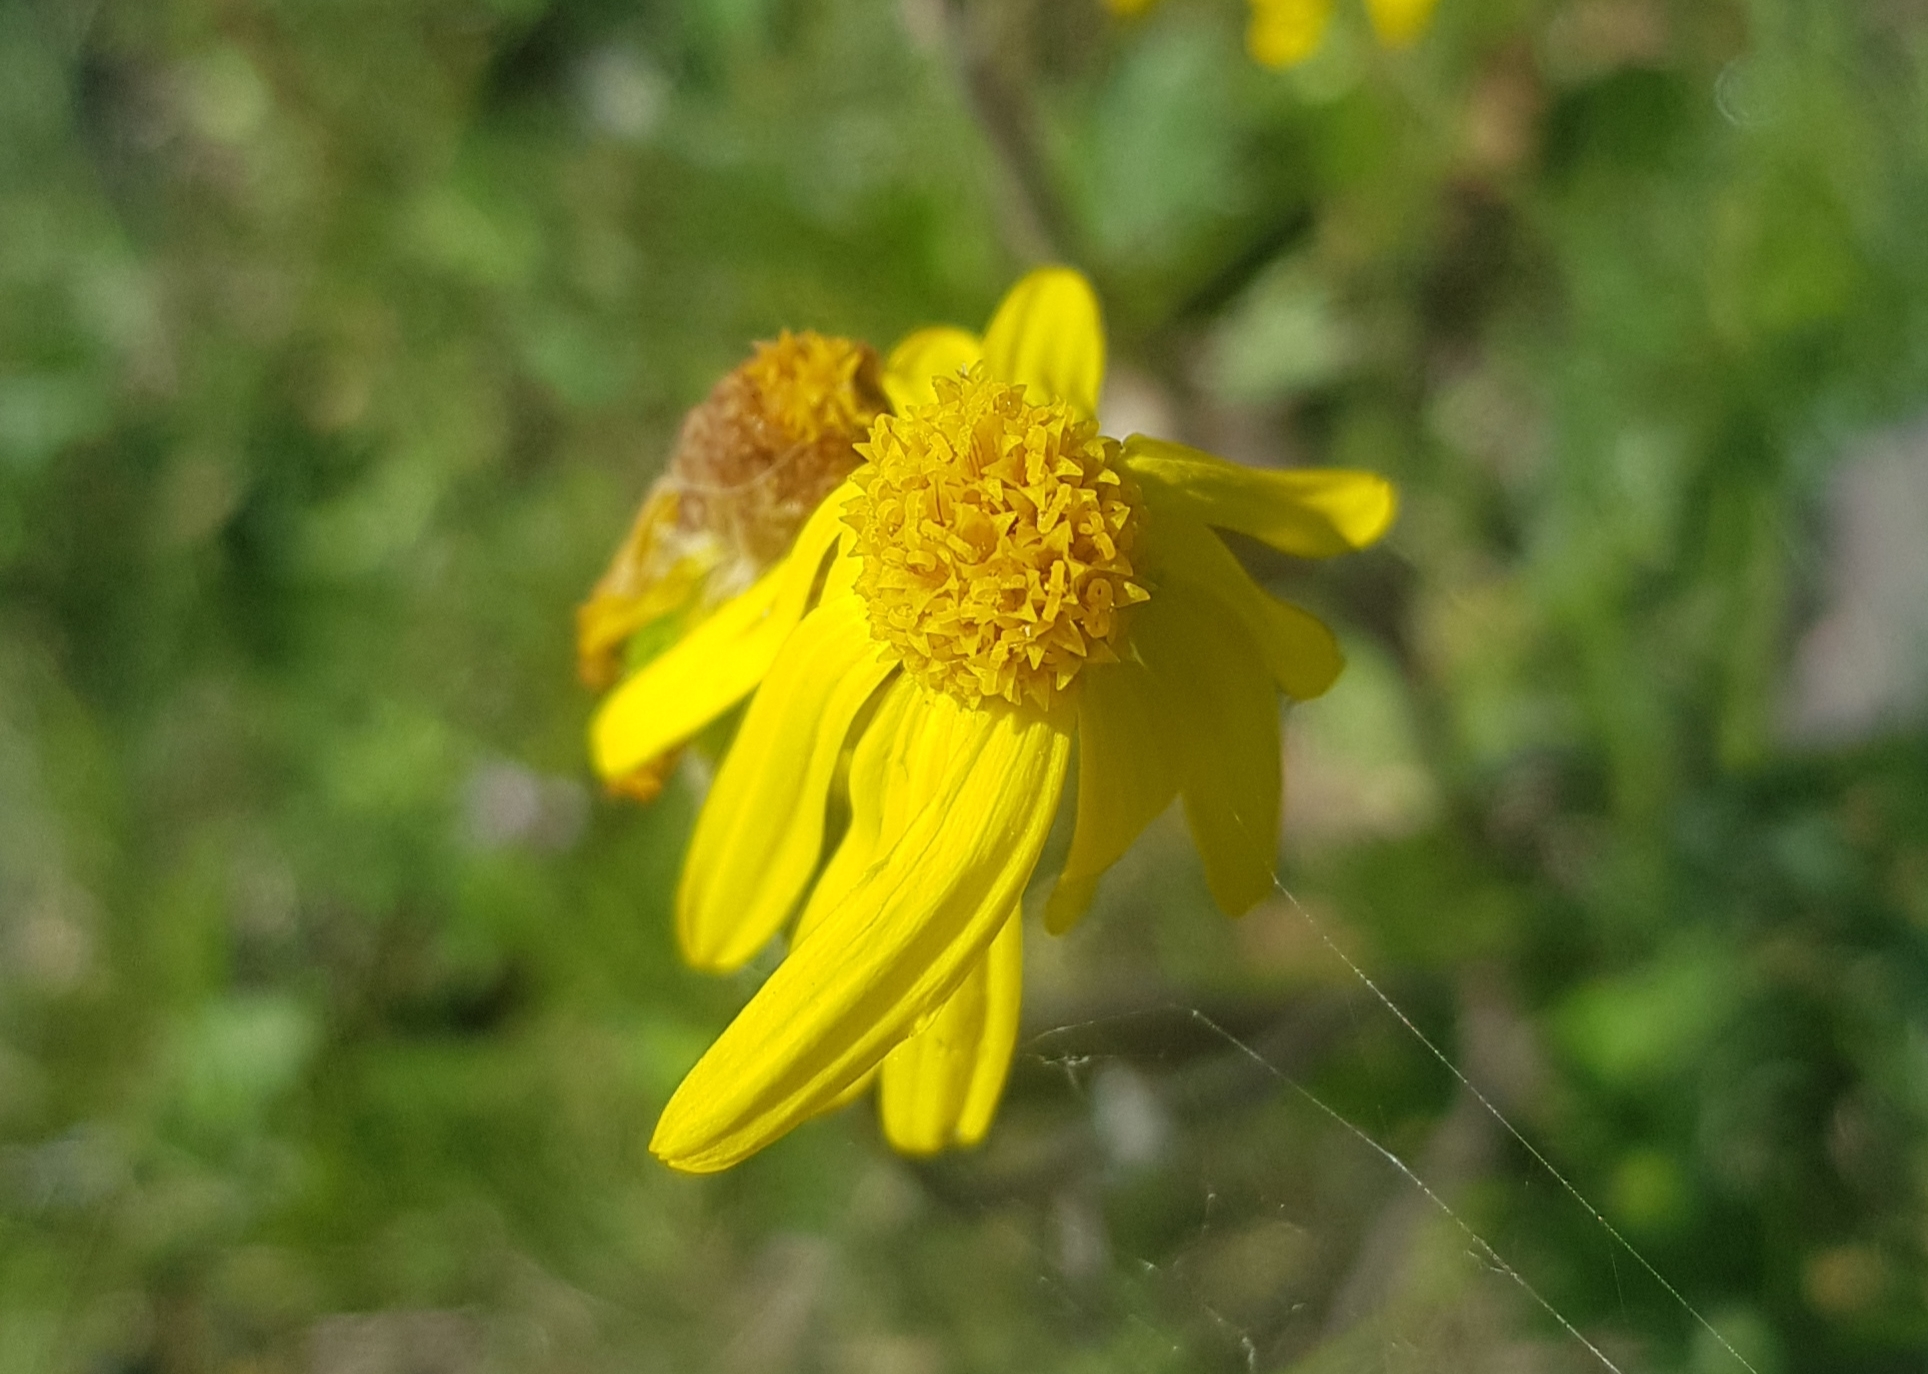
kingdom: Plantae
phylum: Tracheophyta
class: Magnoliopsida
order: Asterales
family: Asteraceae
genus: Packera
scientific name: Packera cymbalaria
